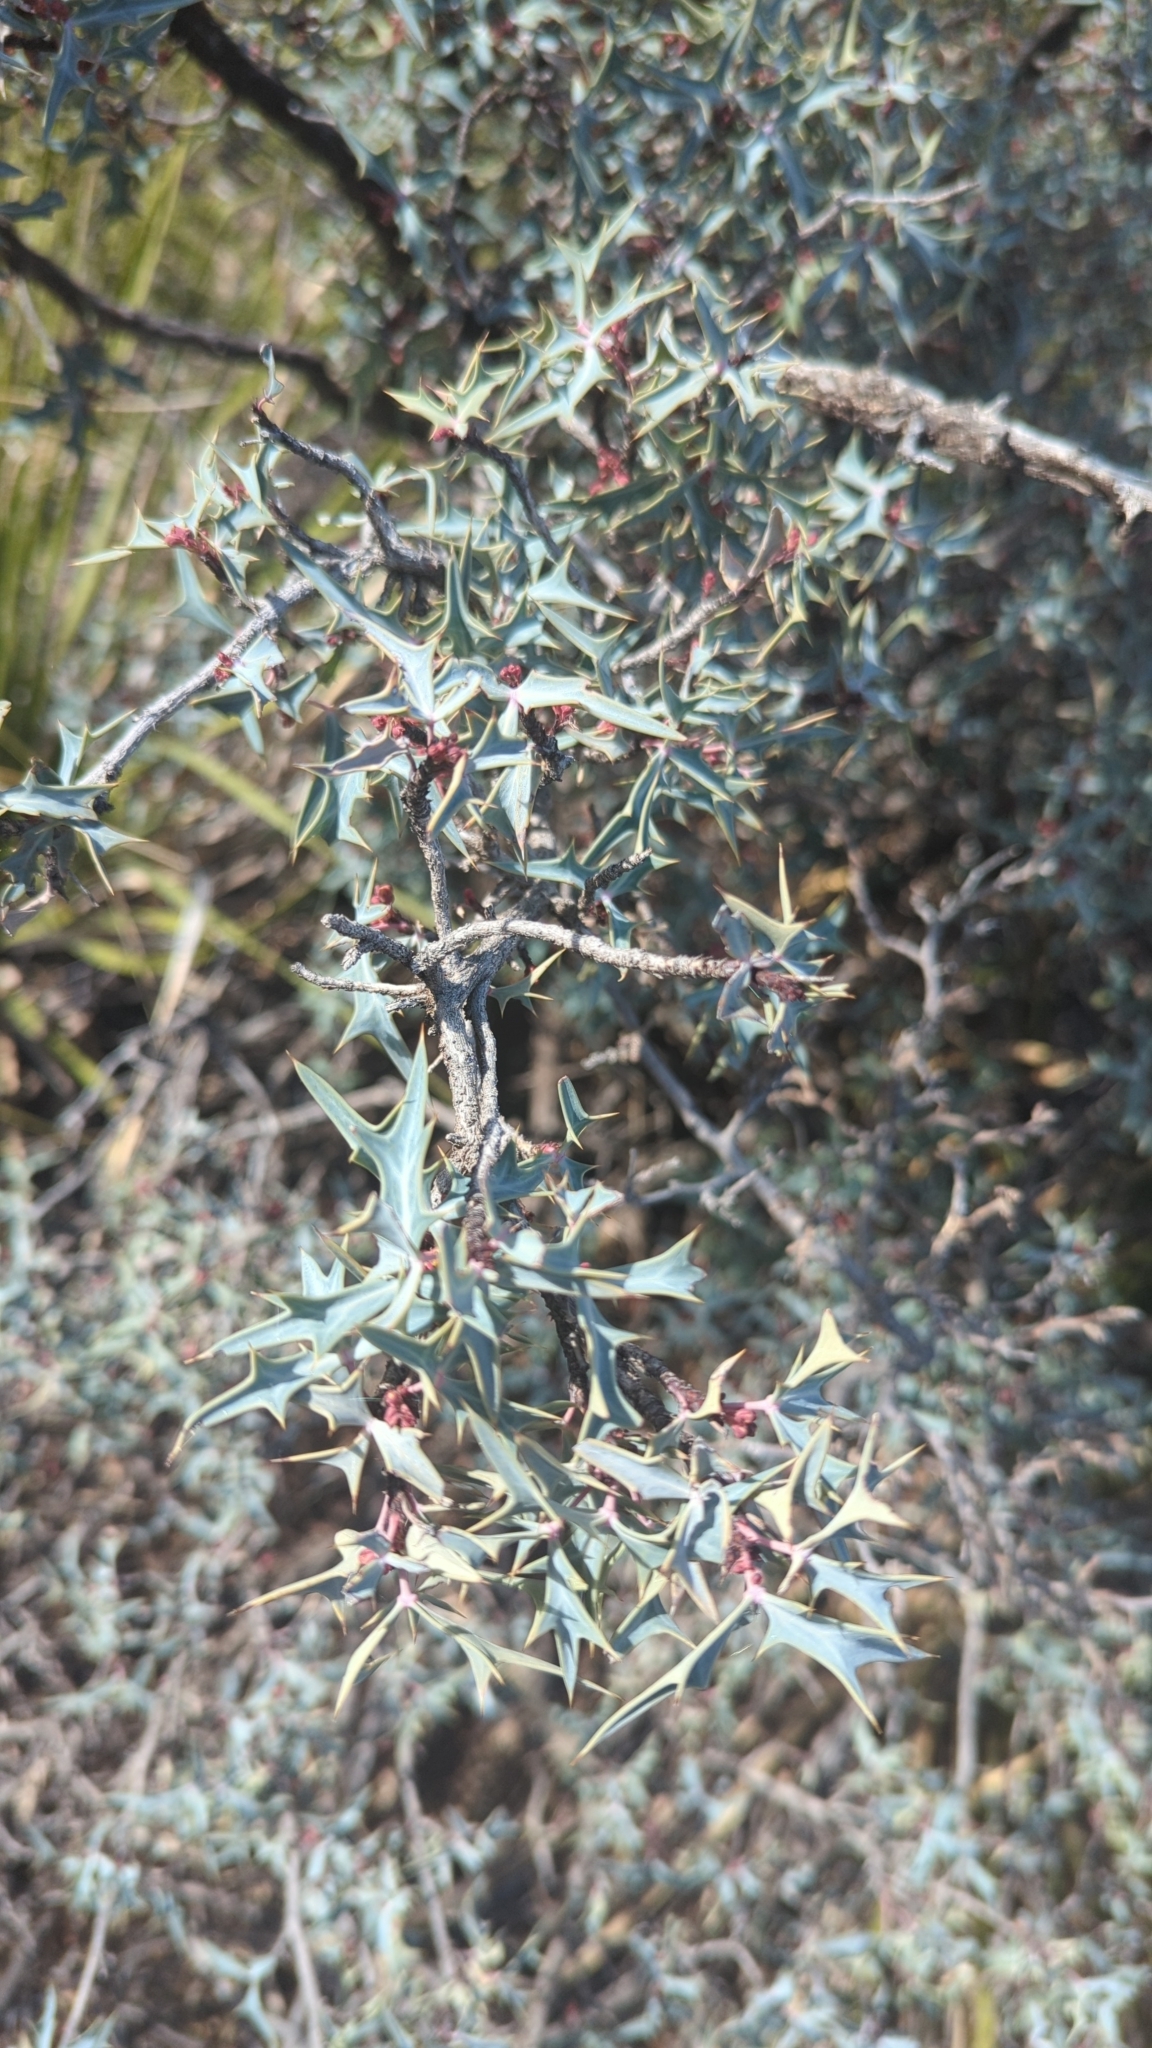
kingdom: Plantae
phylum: Tracheophyta
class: Magnoliopsida
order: Ranunculales
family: Berberidaceae
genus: Alloberberis
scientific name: Alloberberis trifoliolata
